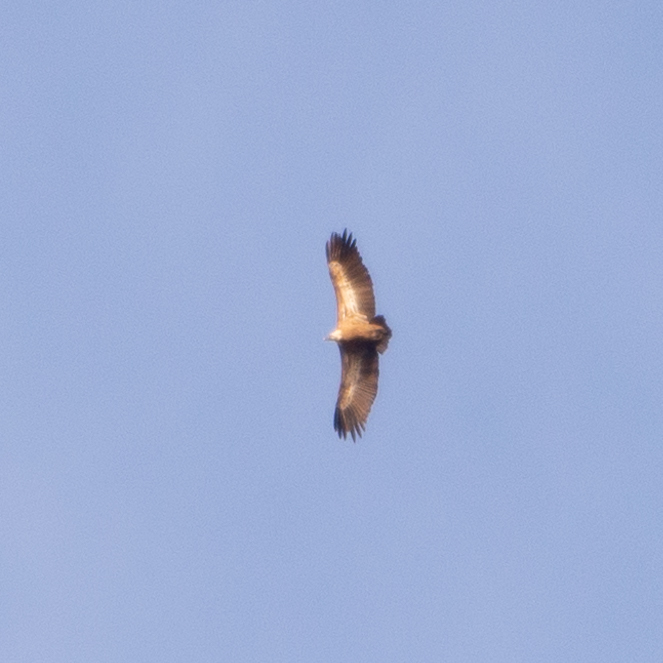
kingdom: Animalia
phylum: Chordata
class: Aves
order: Accipitriformes
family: Accipitridae
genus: Gyps
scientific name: Gyps fulvus
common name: Griffon vulture
